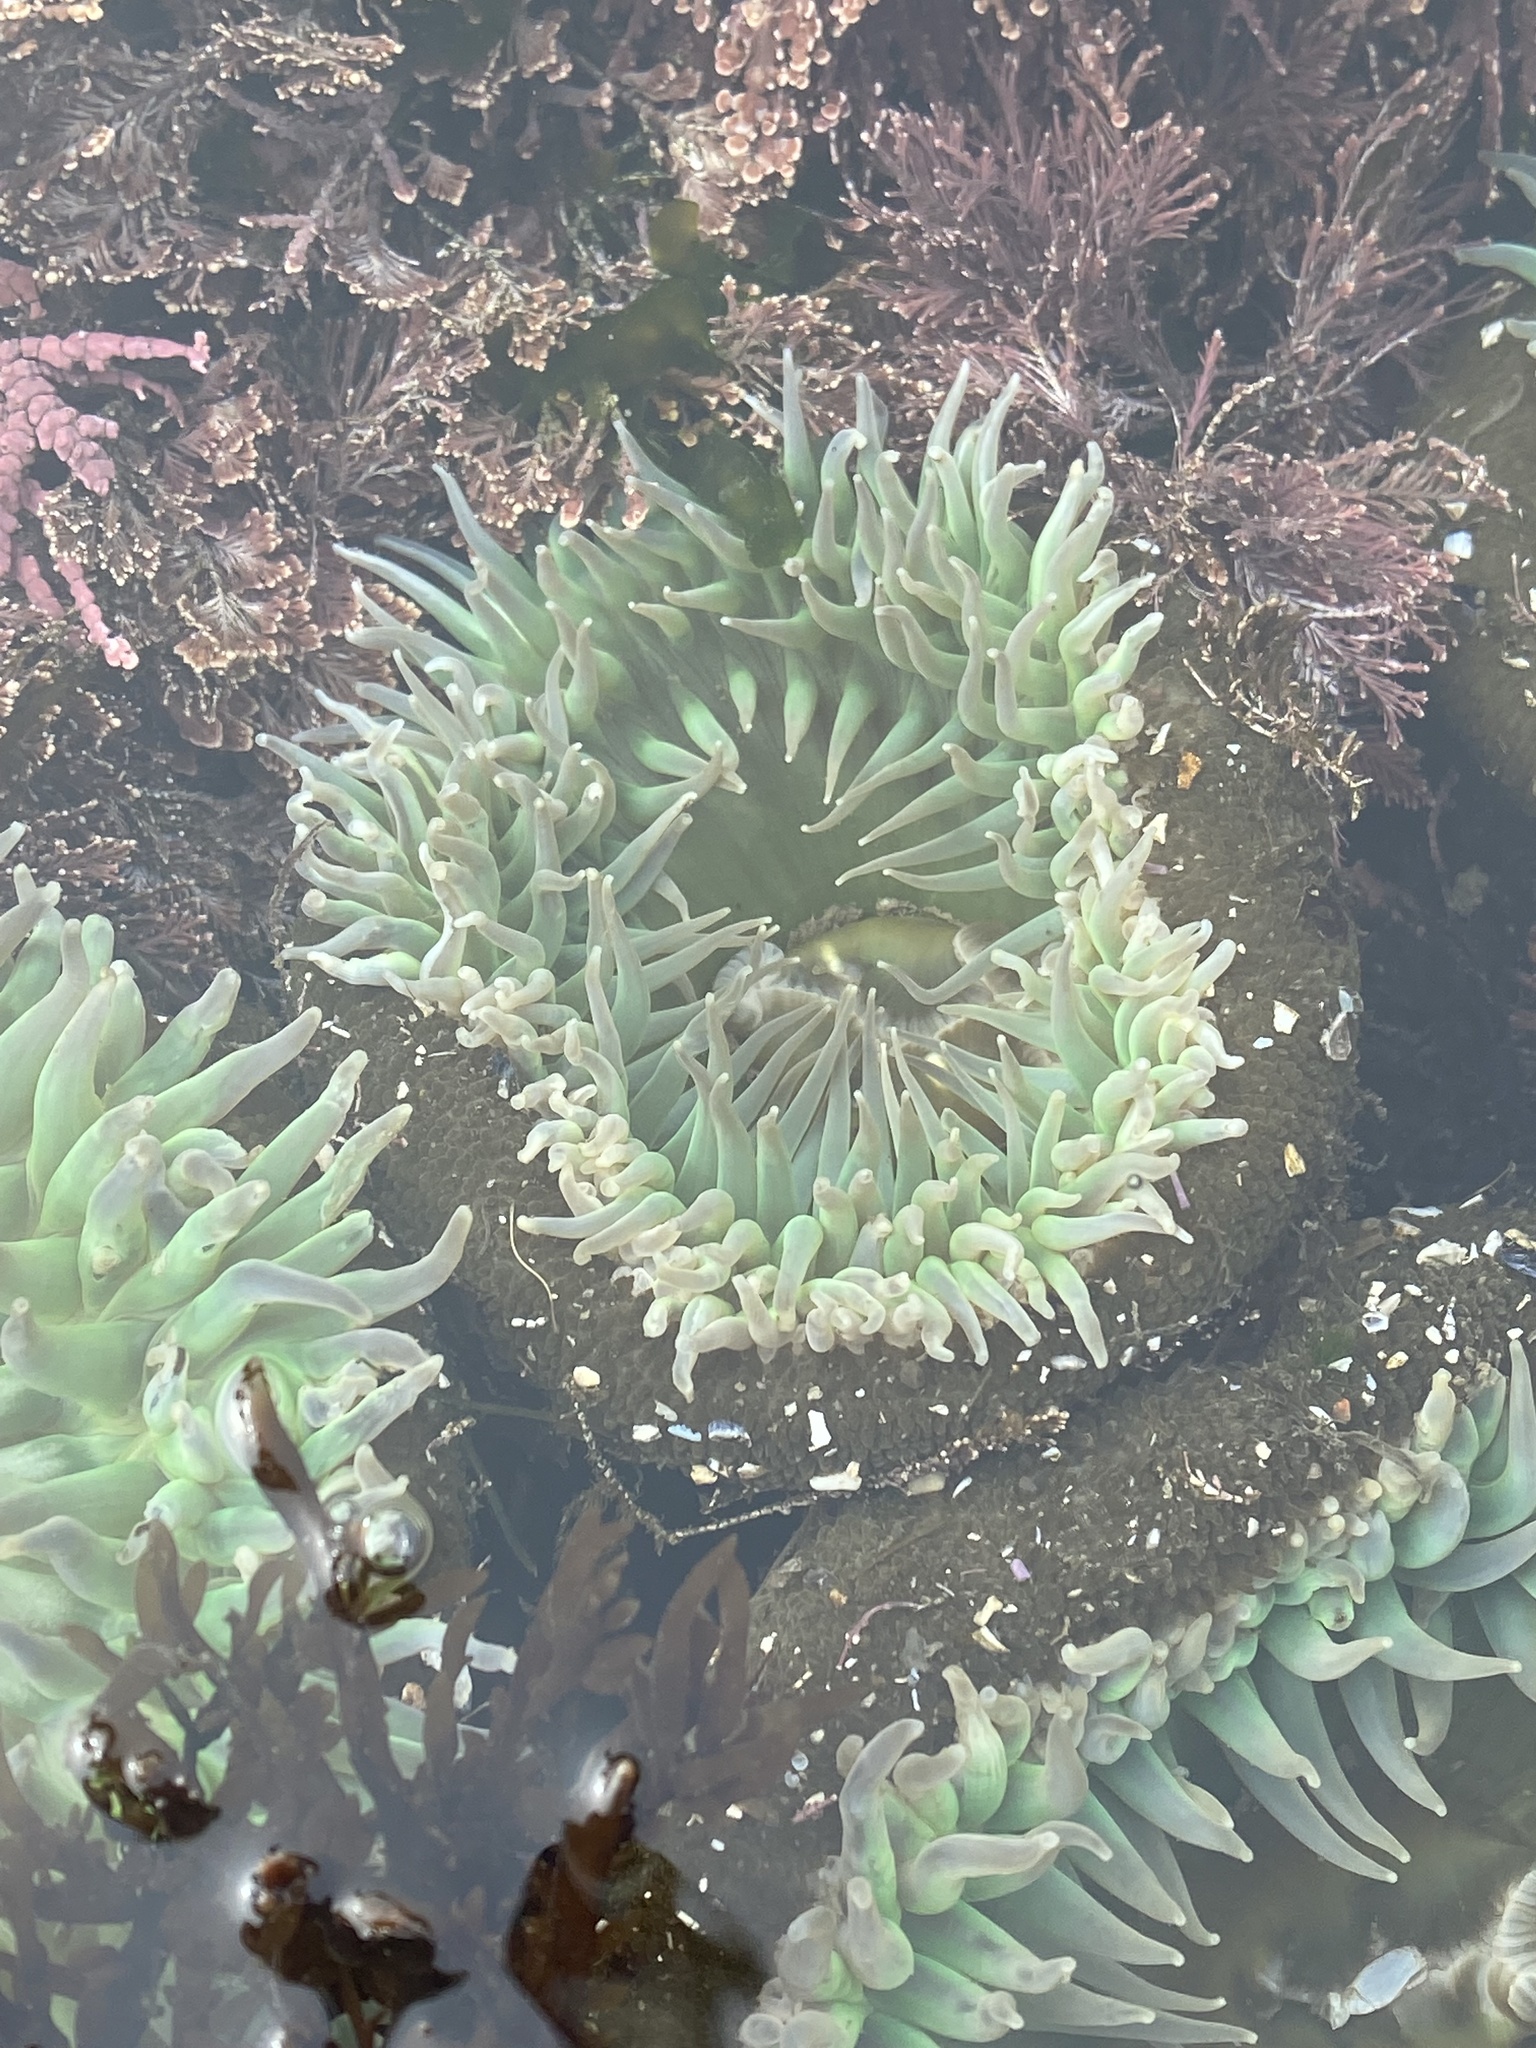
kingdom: Animalia
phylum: Cnidaria
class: Anthozoa
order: Actiniaria
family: Actiniidae
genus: Anthopleura
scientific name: Anthopleura xanthogrammica
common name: Giant green anemone
